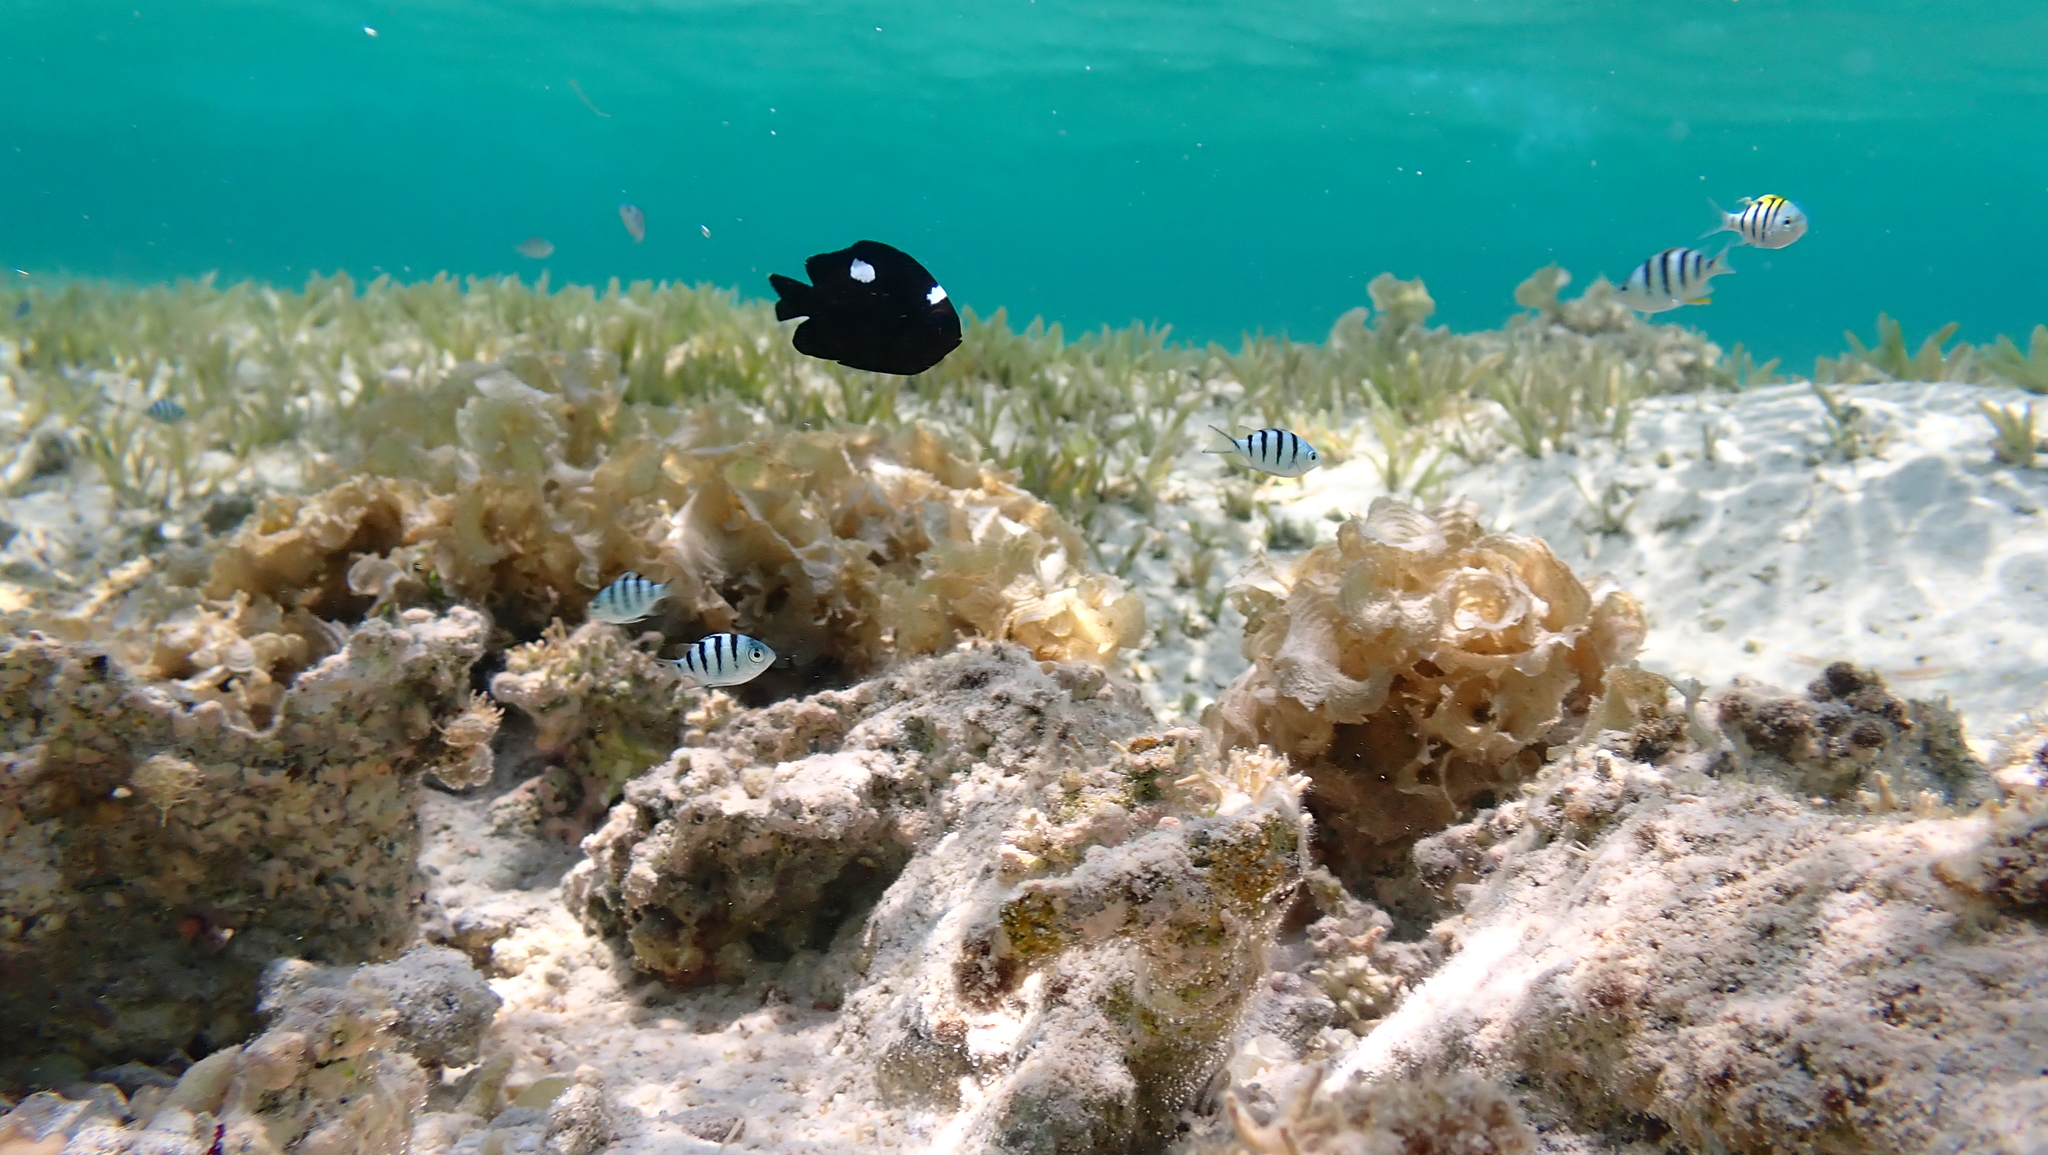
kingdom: Animalia
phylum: Chordata
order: Perciformes
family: Pomacentridae
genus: Dascyllus
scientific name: Dascyllus trimaculatus
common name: Threespot dascyllus
